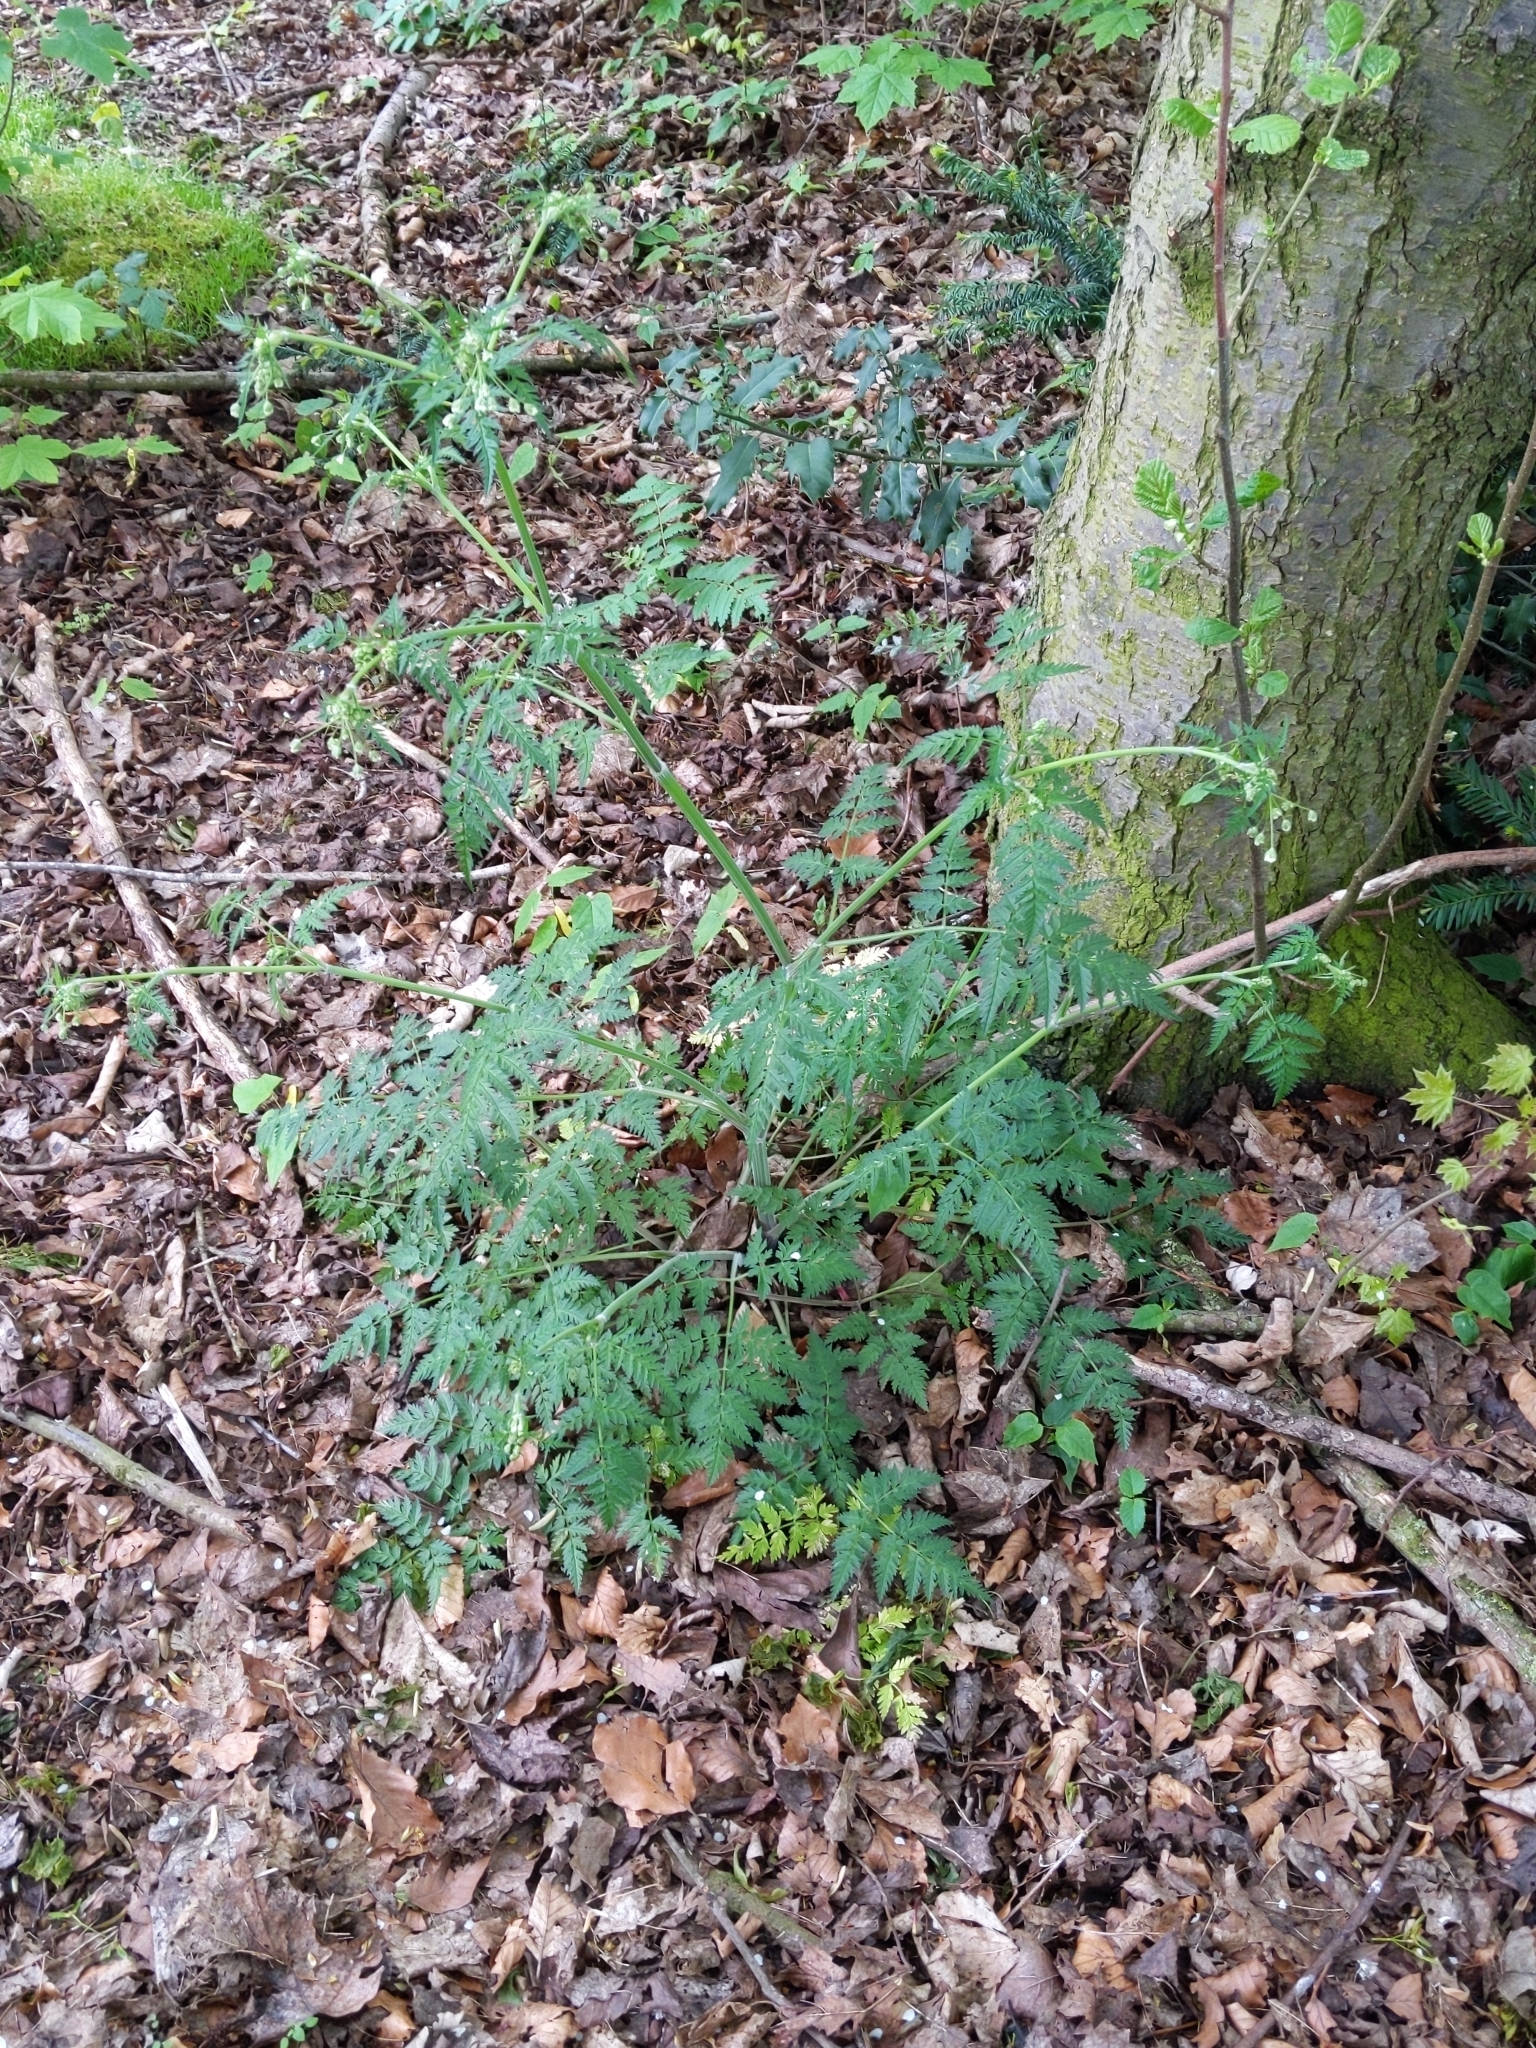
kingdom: Plantae
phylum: Tracheophyta
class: Magnoliopsida
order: Apiales
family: Apiaceae
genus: Anthriscus
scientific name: Anthriscus sylvestris
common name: Cow parsley
